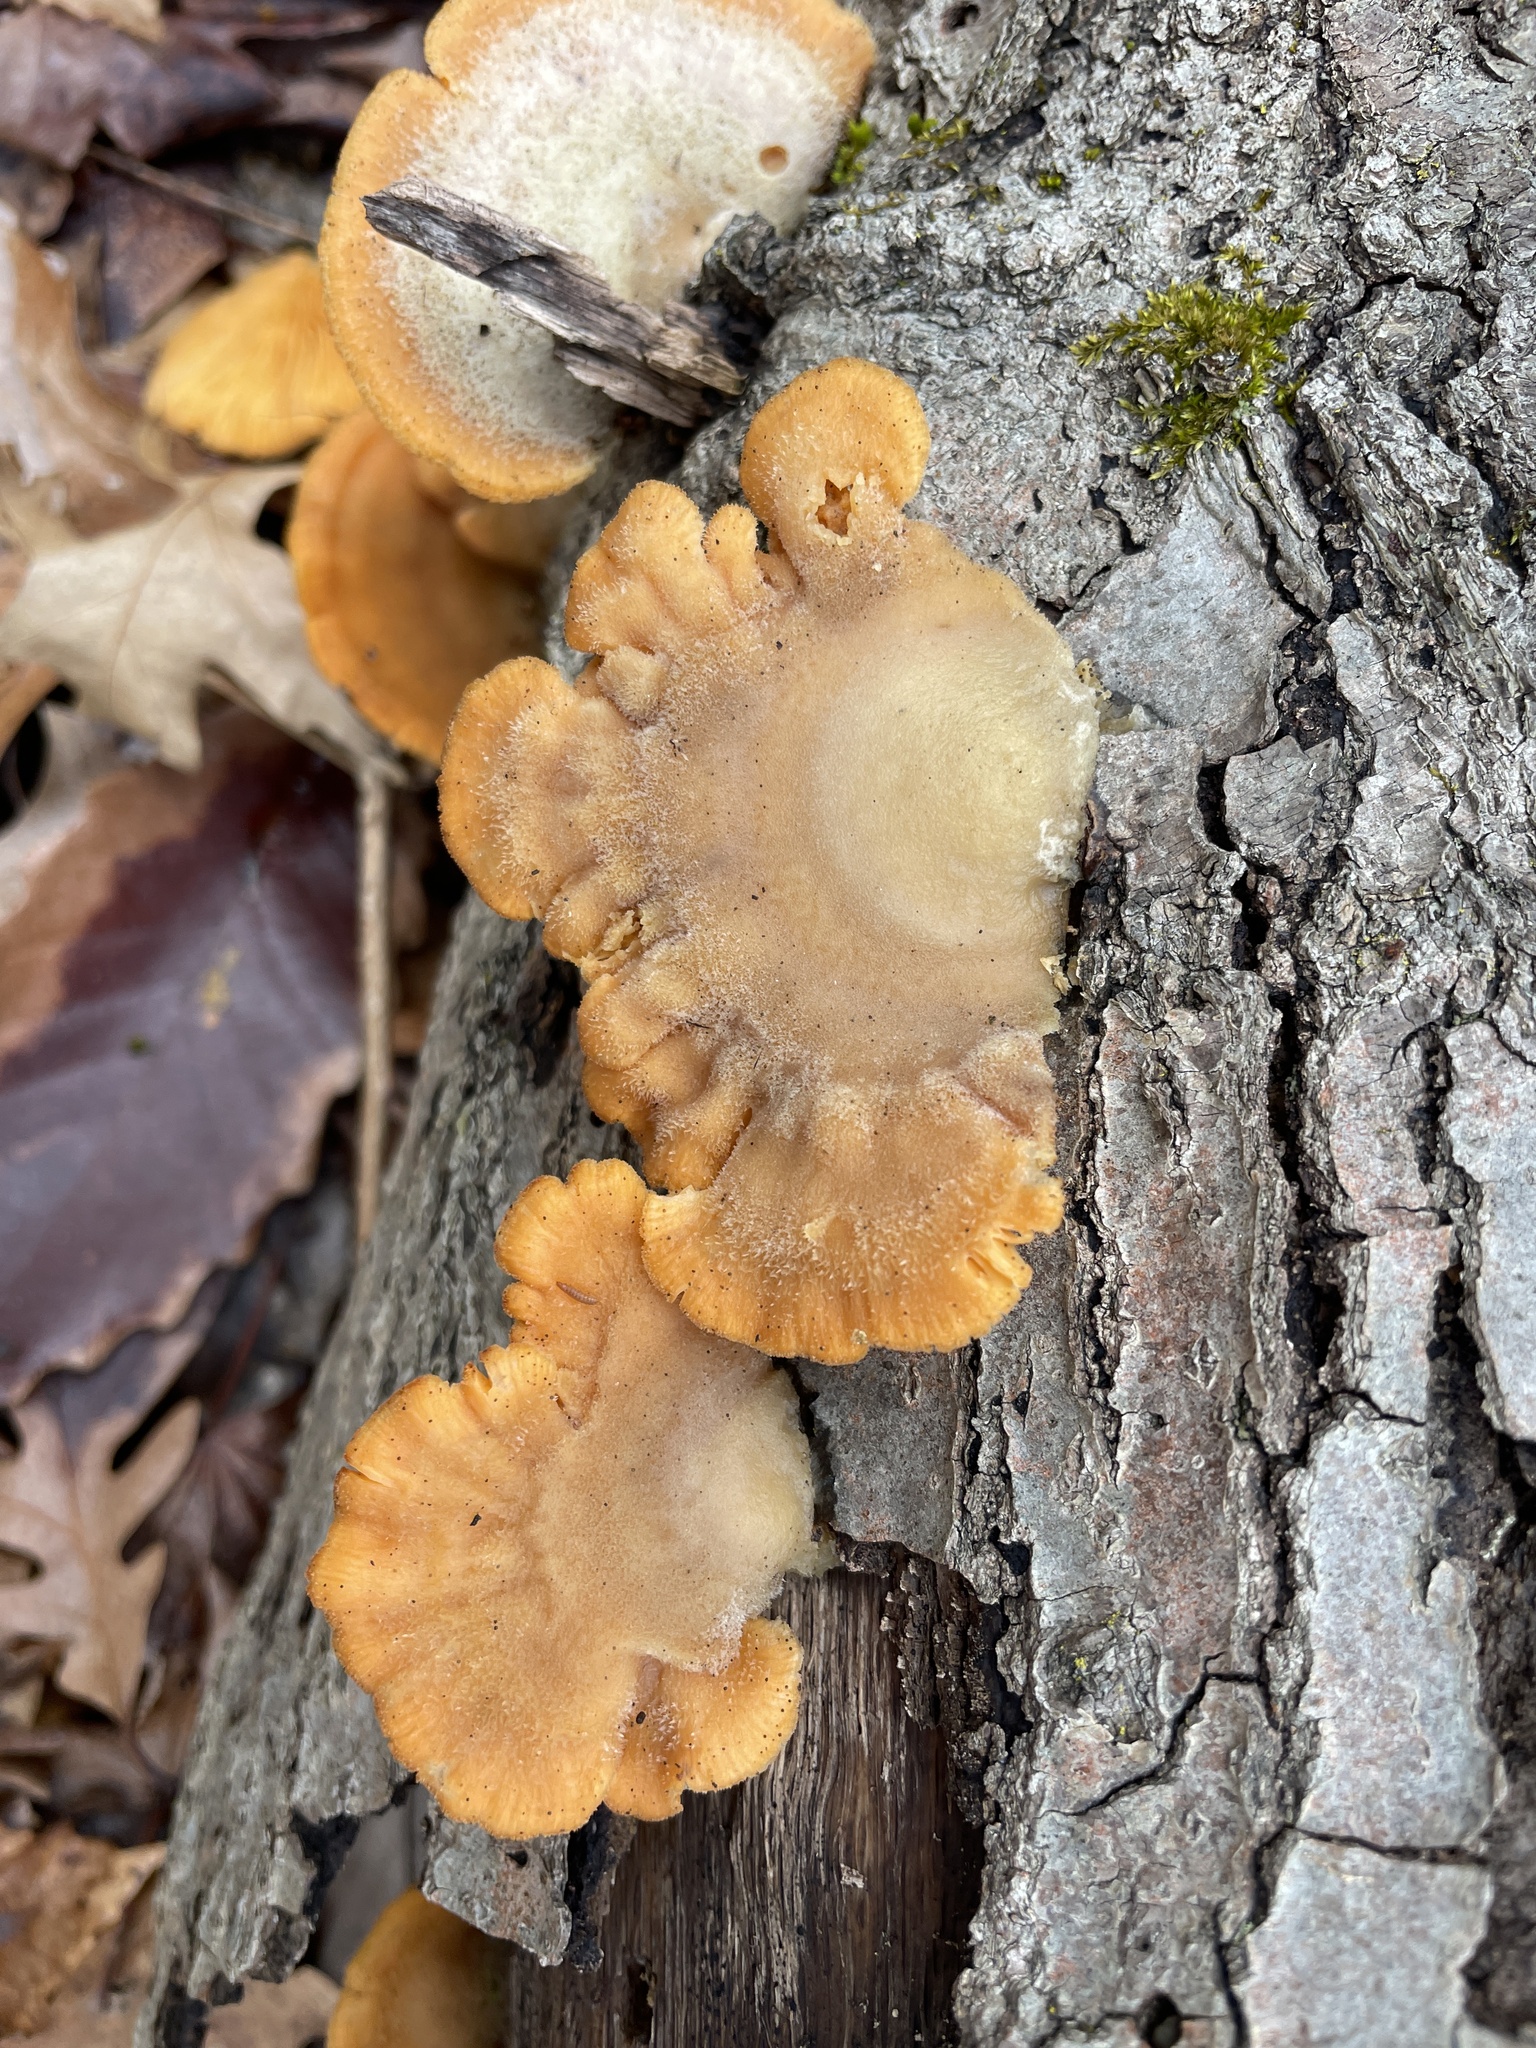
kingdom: Fungi
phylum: Basidiomycota
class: Agaricomycetes
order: Agaricales
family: Phyllotopsidaceae
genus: Phyllotopsis
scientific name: Phyllotopsis nidulans
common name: Orange mock oyster
